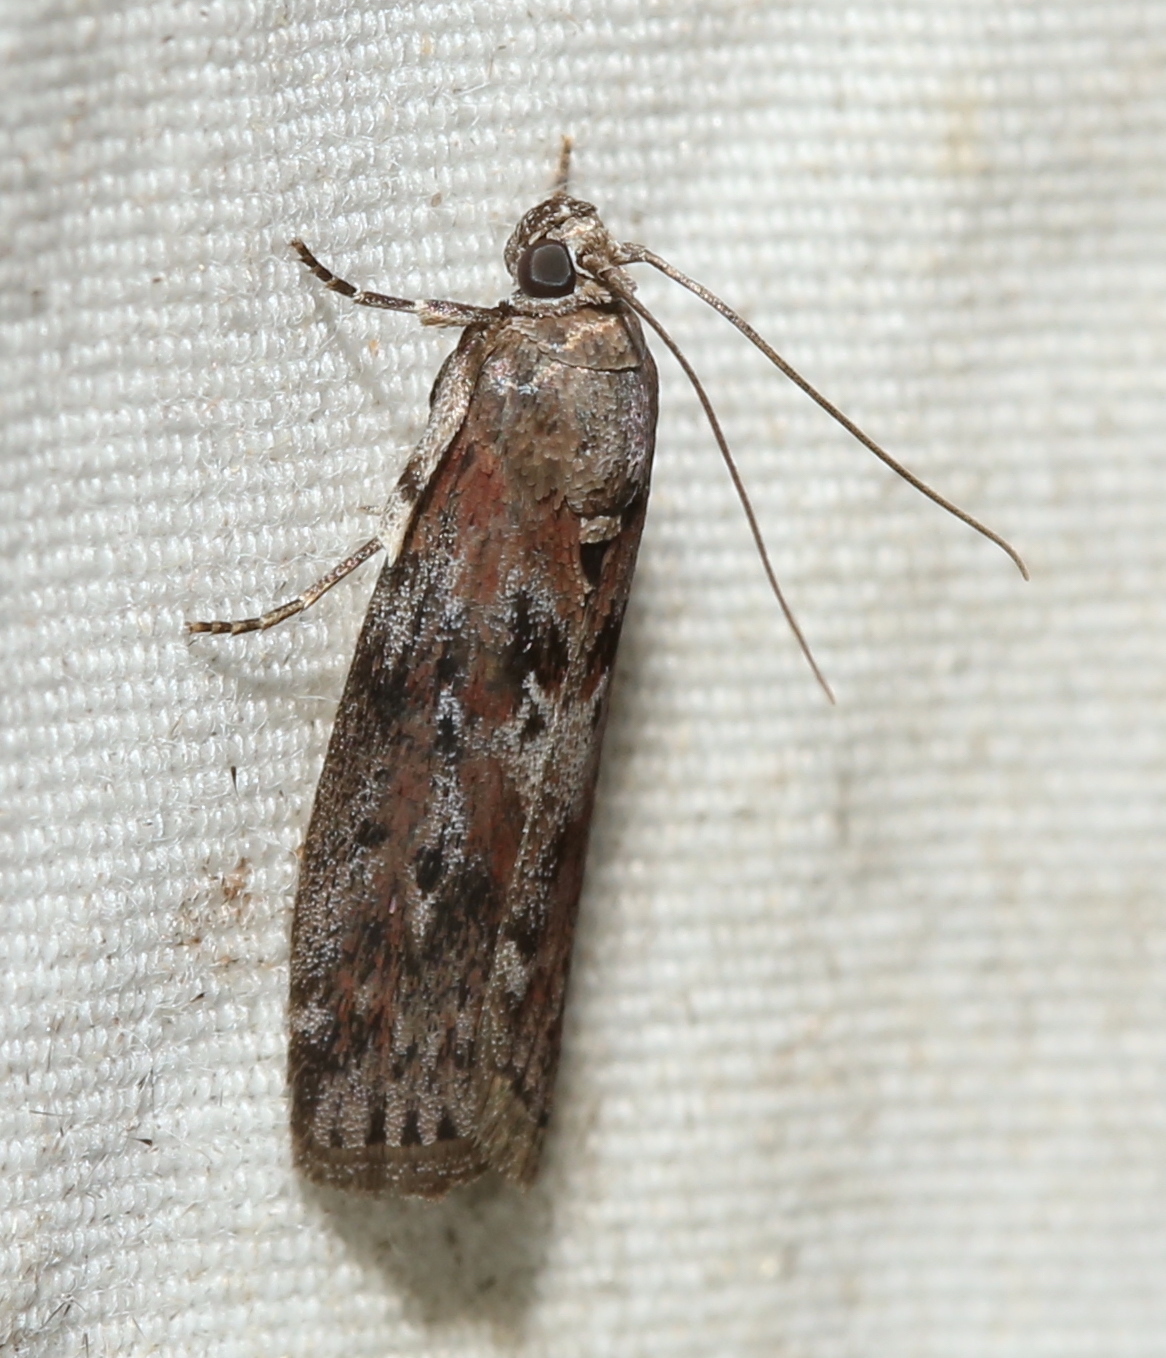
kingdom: Animalia
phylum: Arthropoda
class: Insecta
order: Lepidoptera
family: Pyralidae
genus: Sciota
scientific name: Sciota virgatella
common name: Black-spotted leafroller moth
